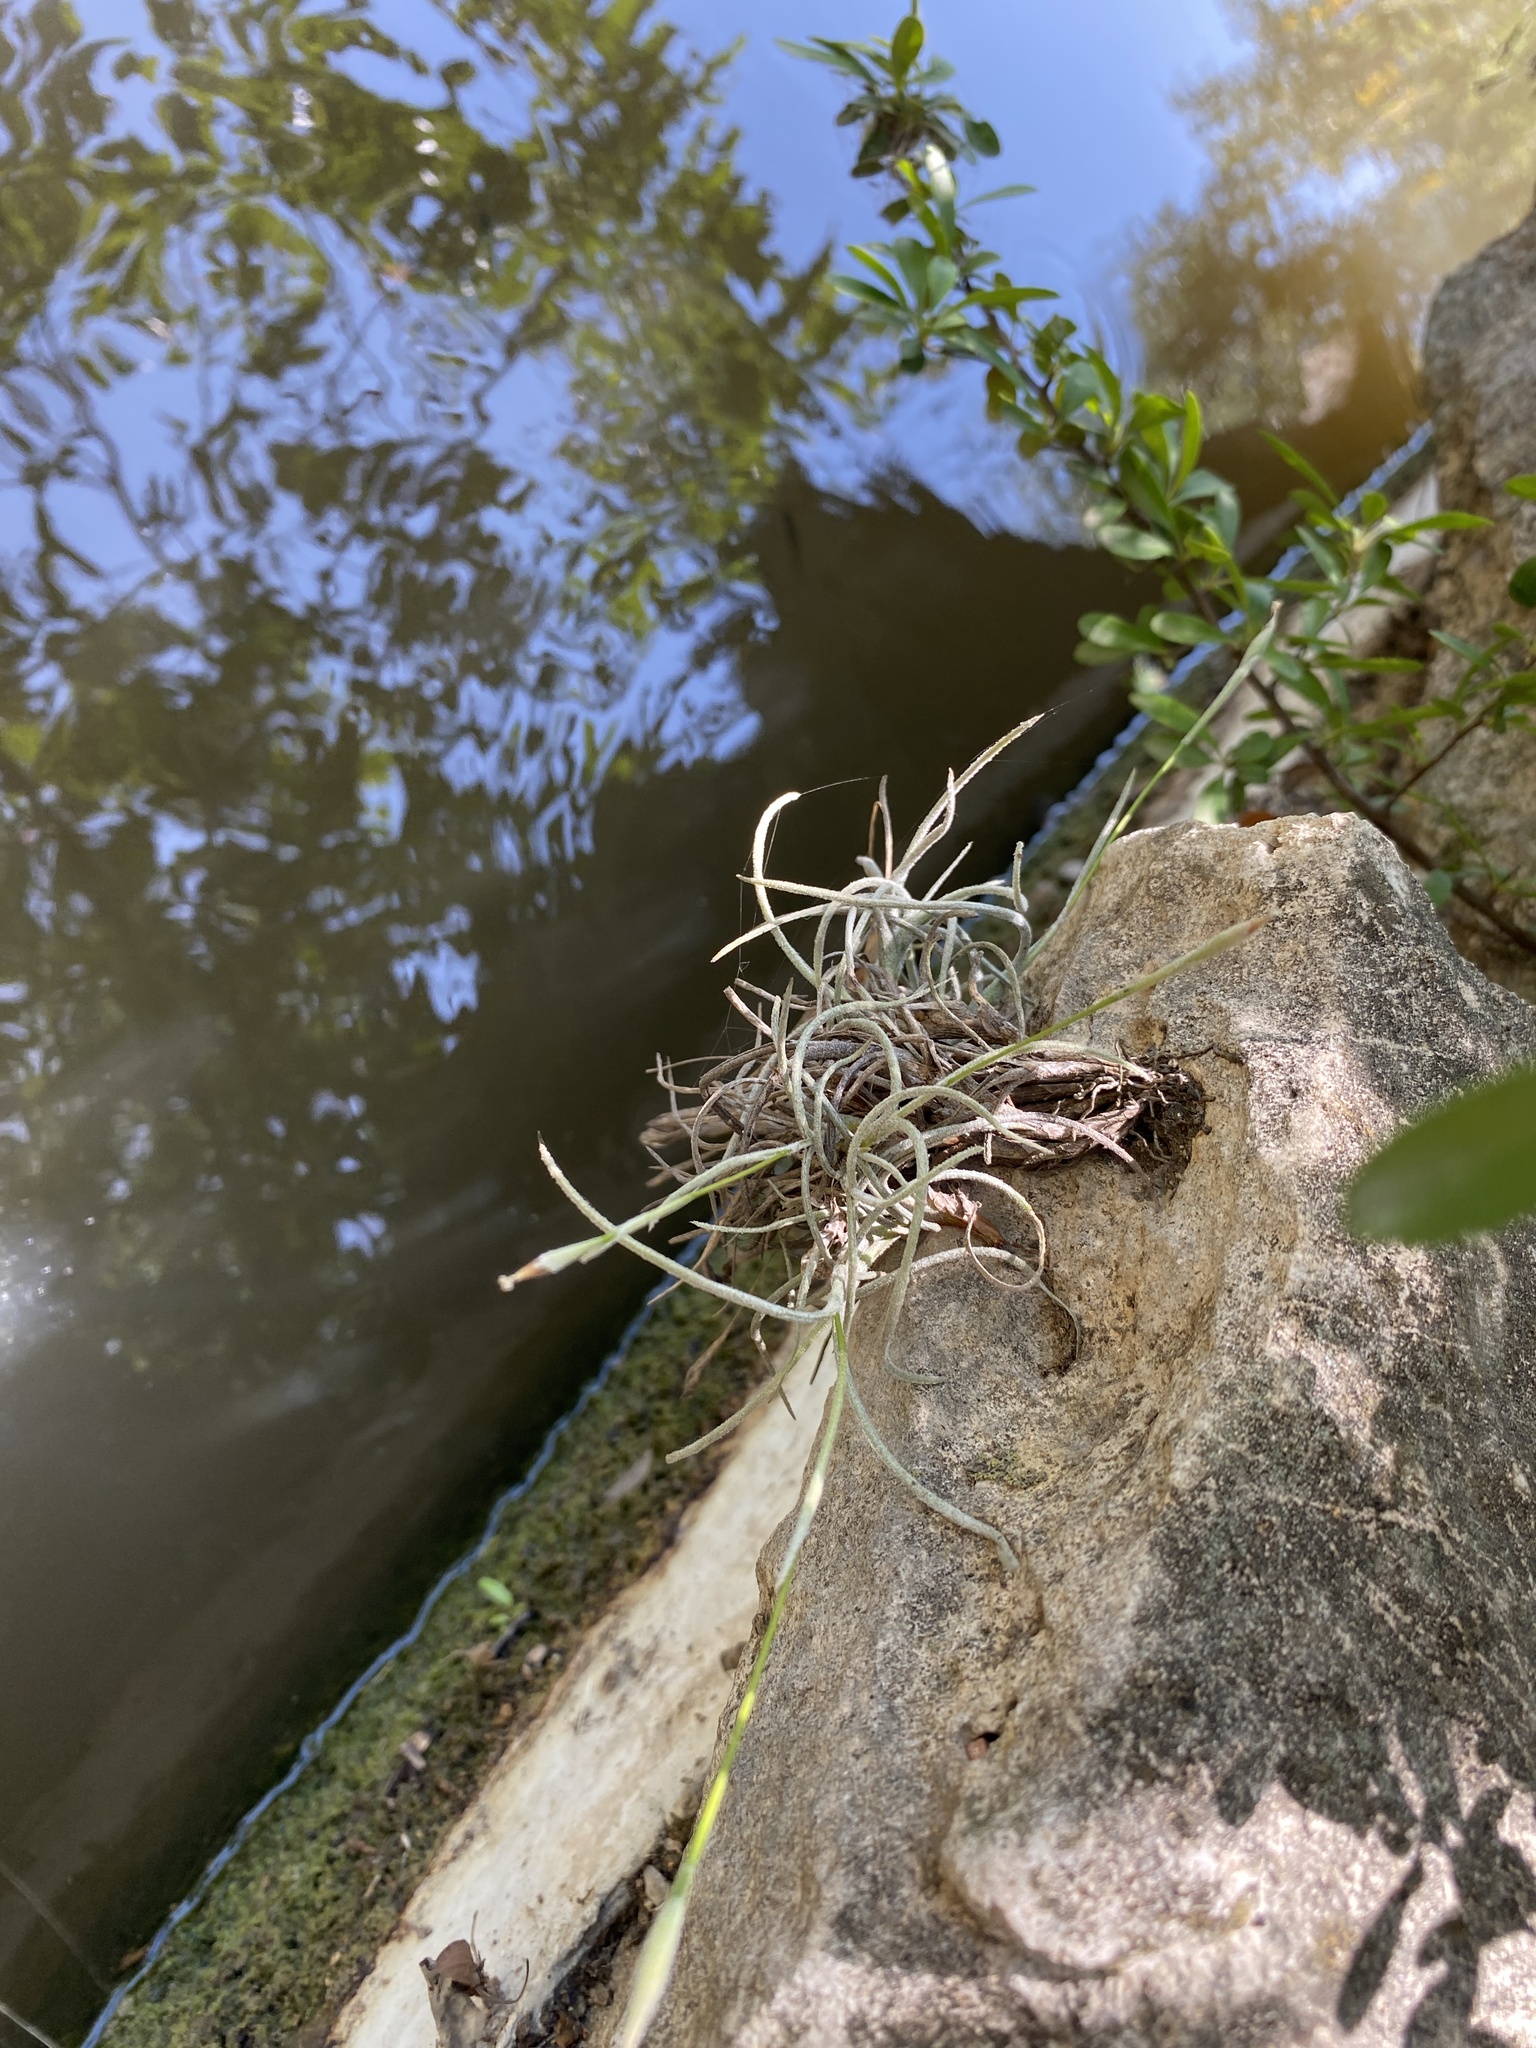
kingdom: Plantae
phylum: Tracheophyta
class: Liliopsida
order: Poales
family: Bromeliaceae
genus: Tillandsia
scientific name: Tillandsia recurvata
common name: Small ballmoss
